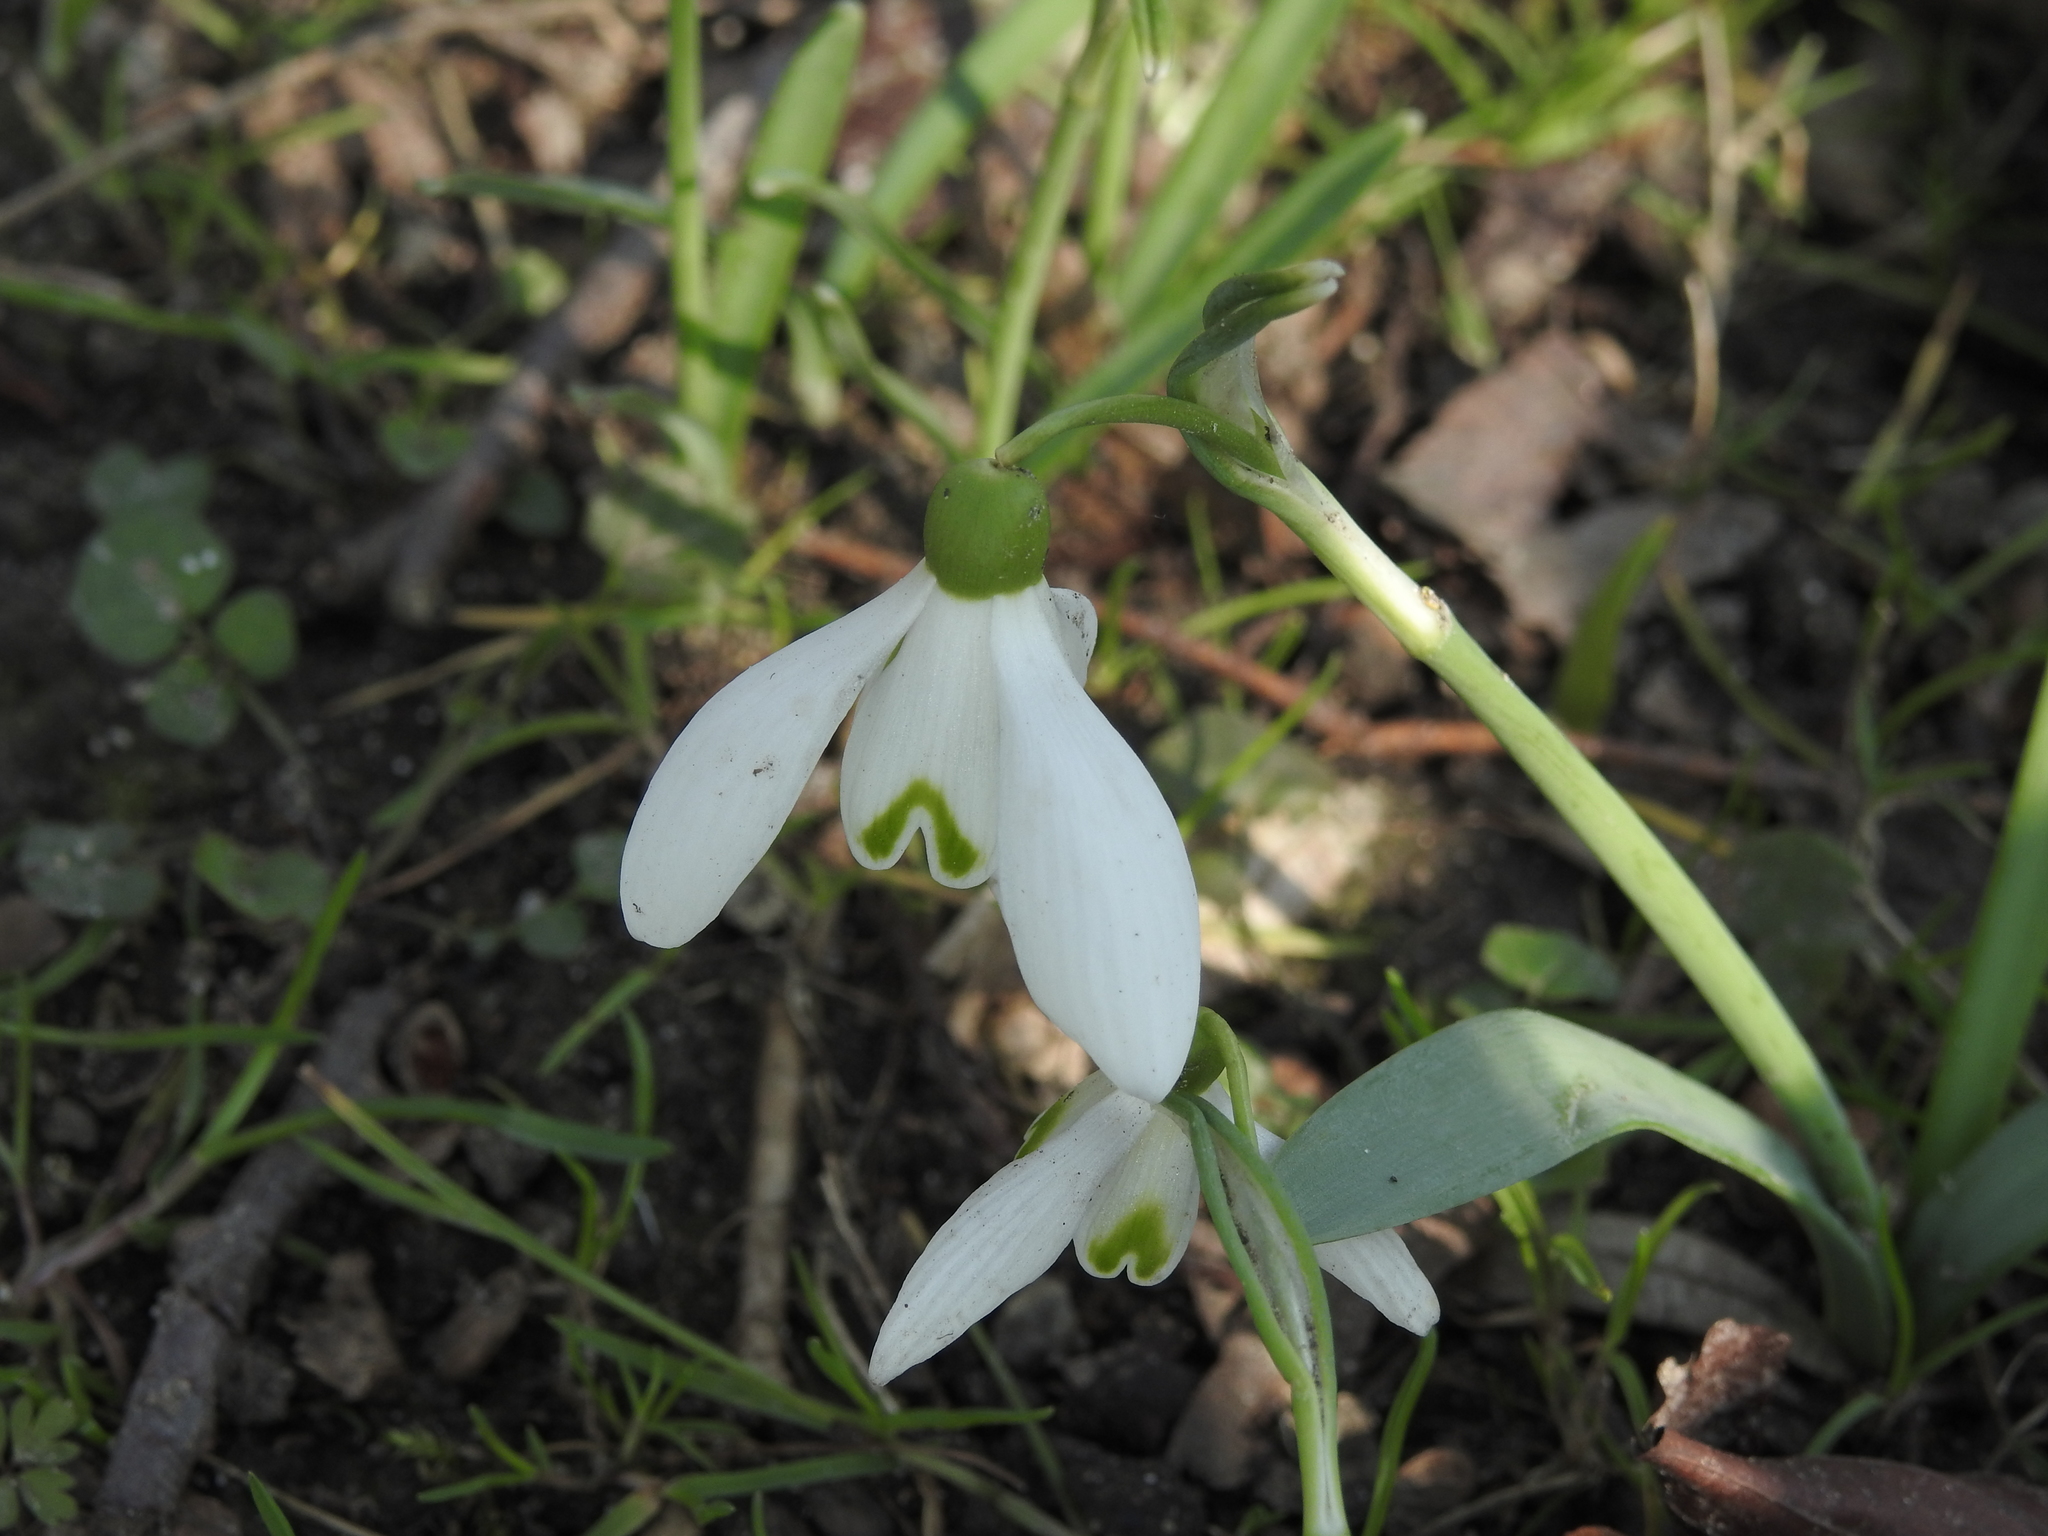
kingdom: Plantae
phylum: Tracheophyta
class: Liliopsida
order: Asparagales
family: Amaryllidaceae
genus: Galanthus
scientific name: Galanthus nivalis
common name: Snowdrop
